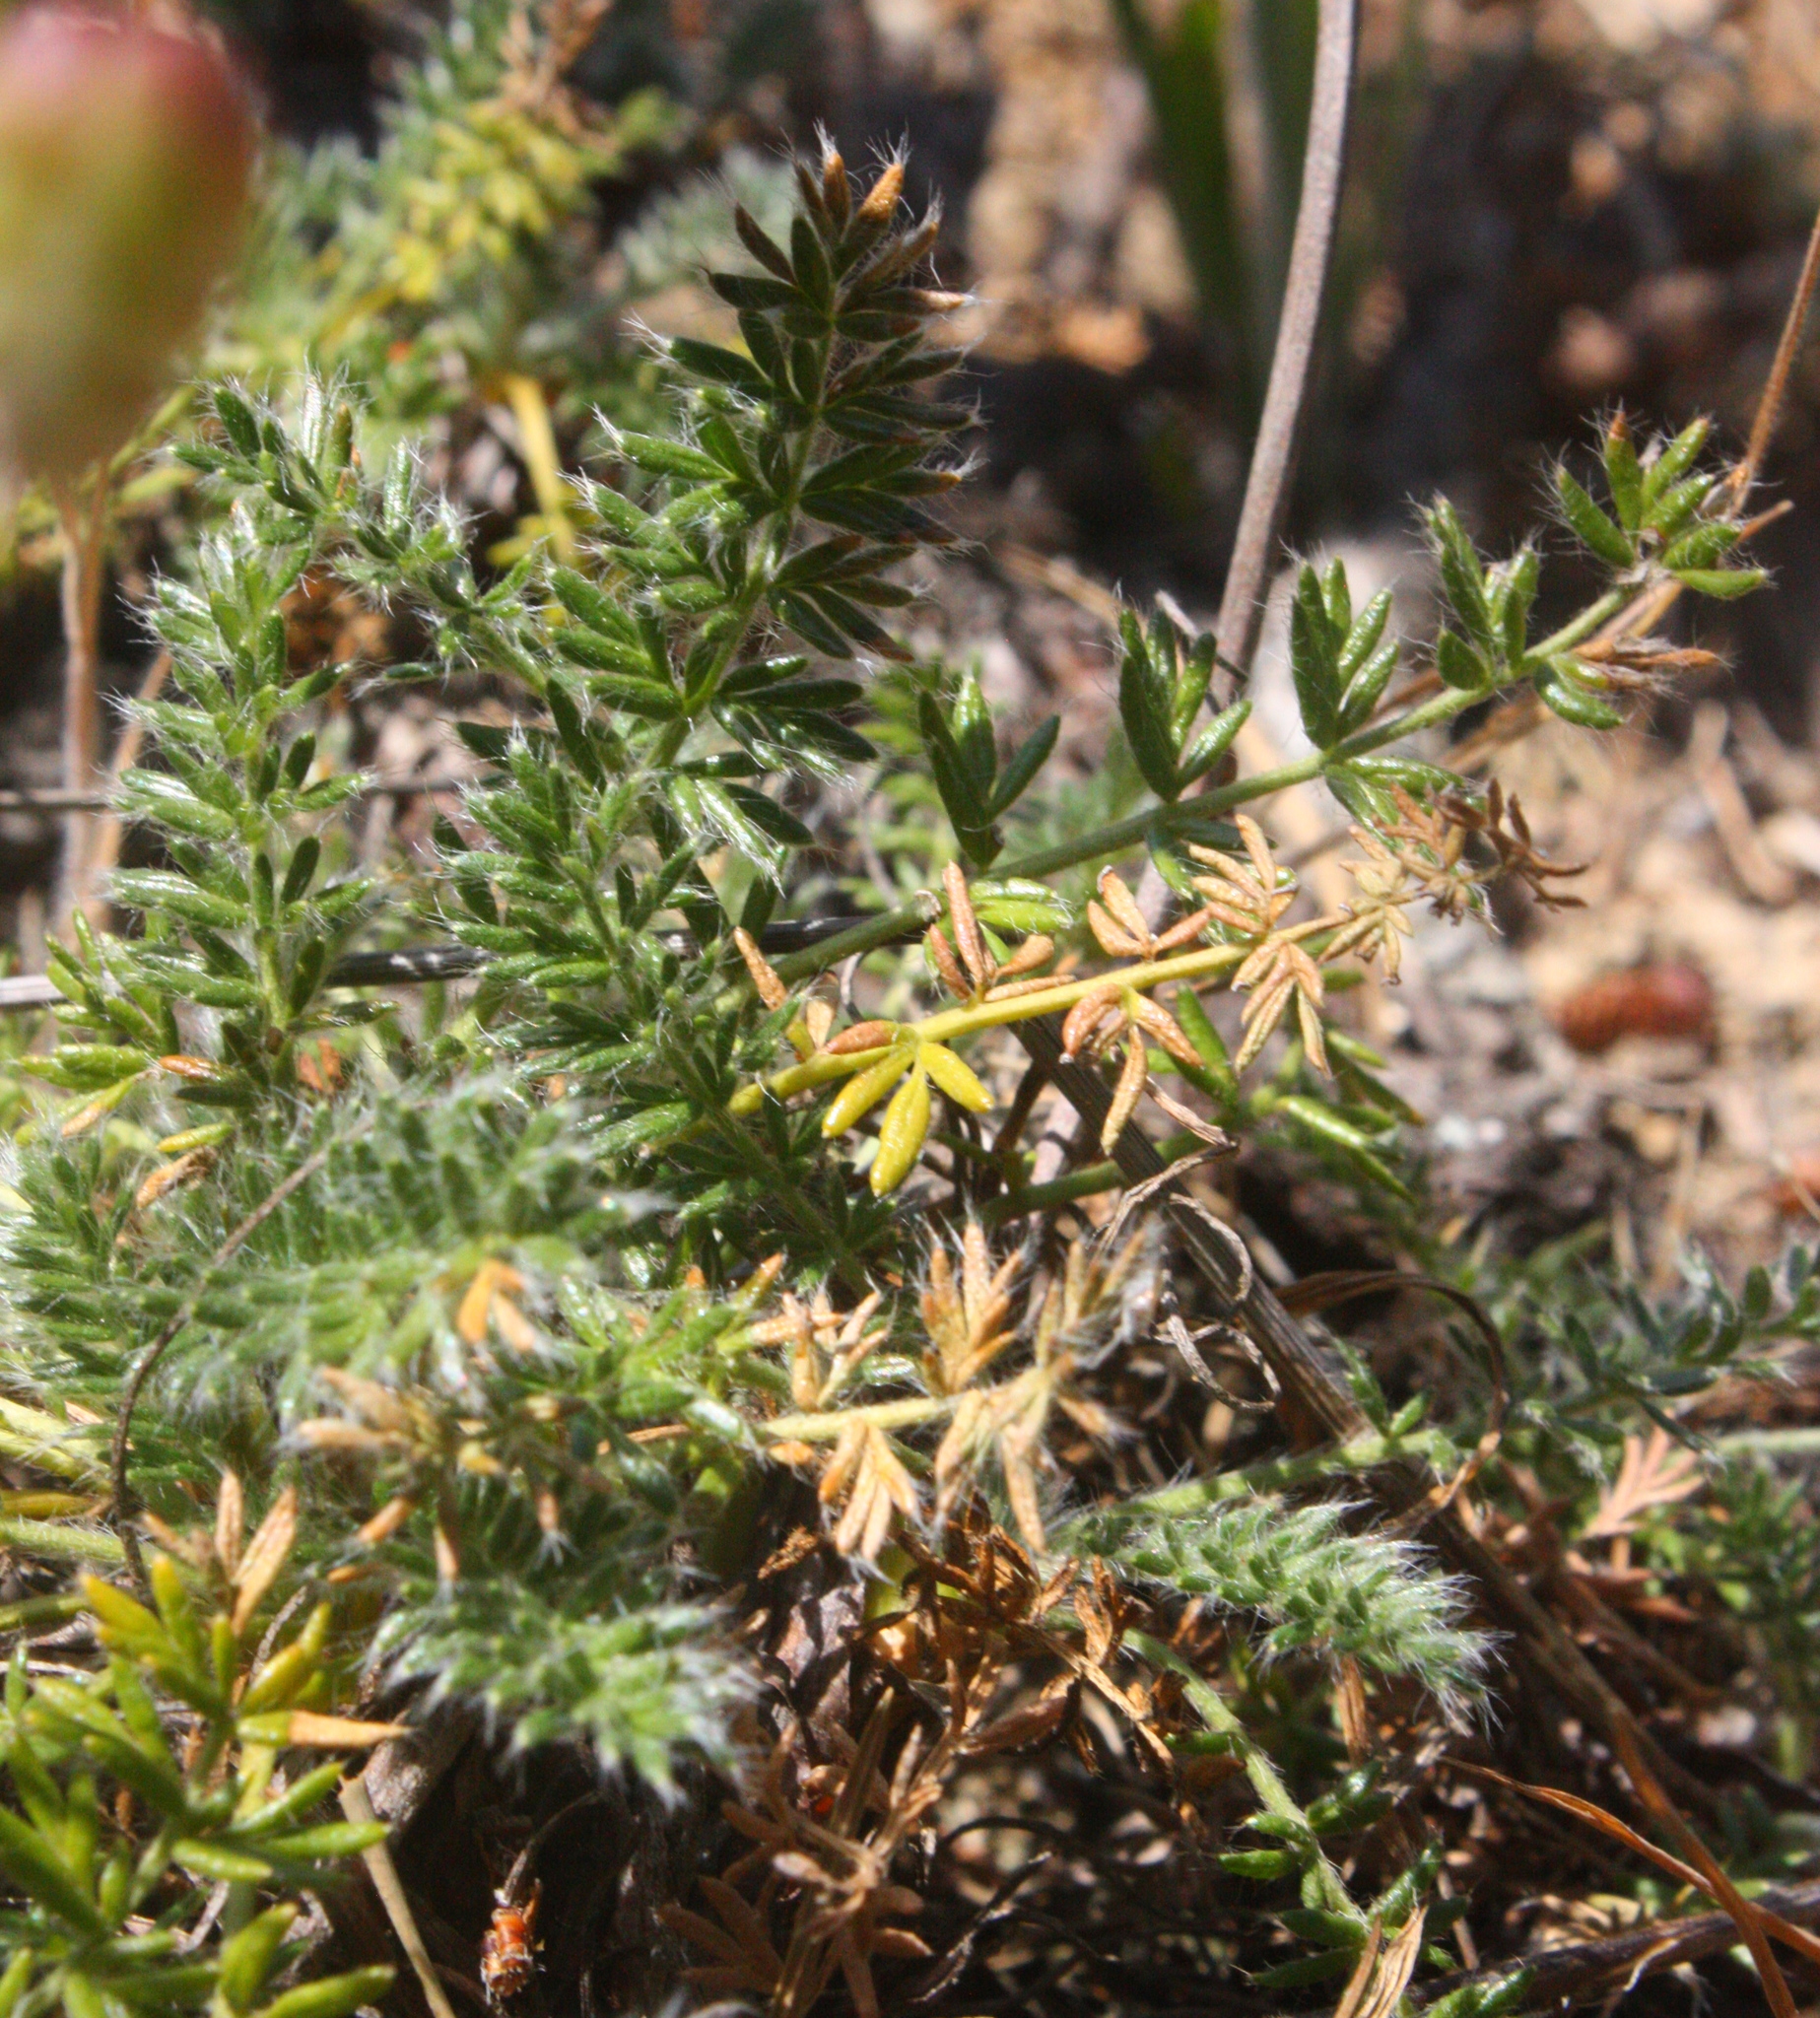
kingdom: Plantae
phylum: Tracheophyta
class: Magnoliopsida
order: Rosales
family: Rosaceae
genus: Acaena
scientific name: Acaena pinnatifida
